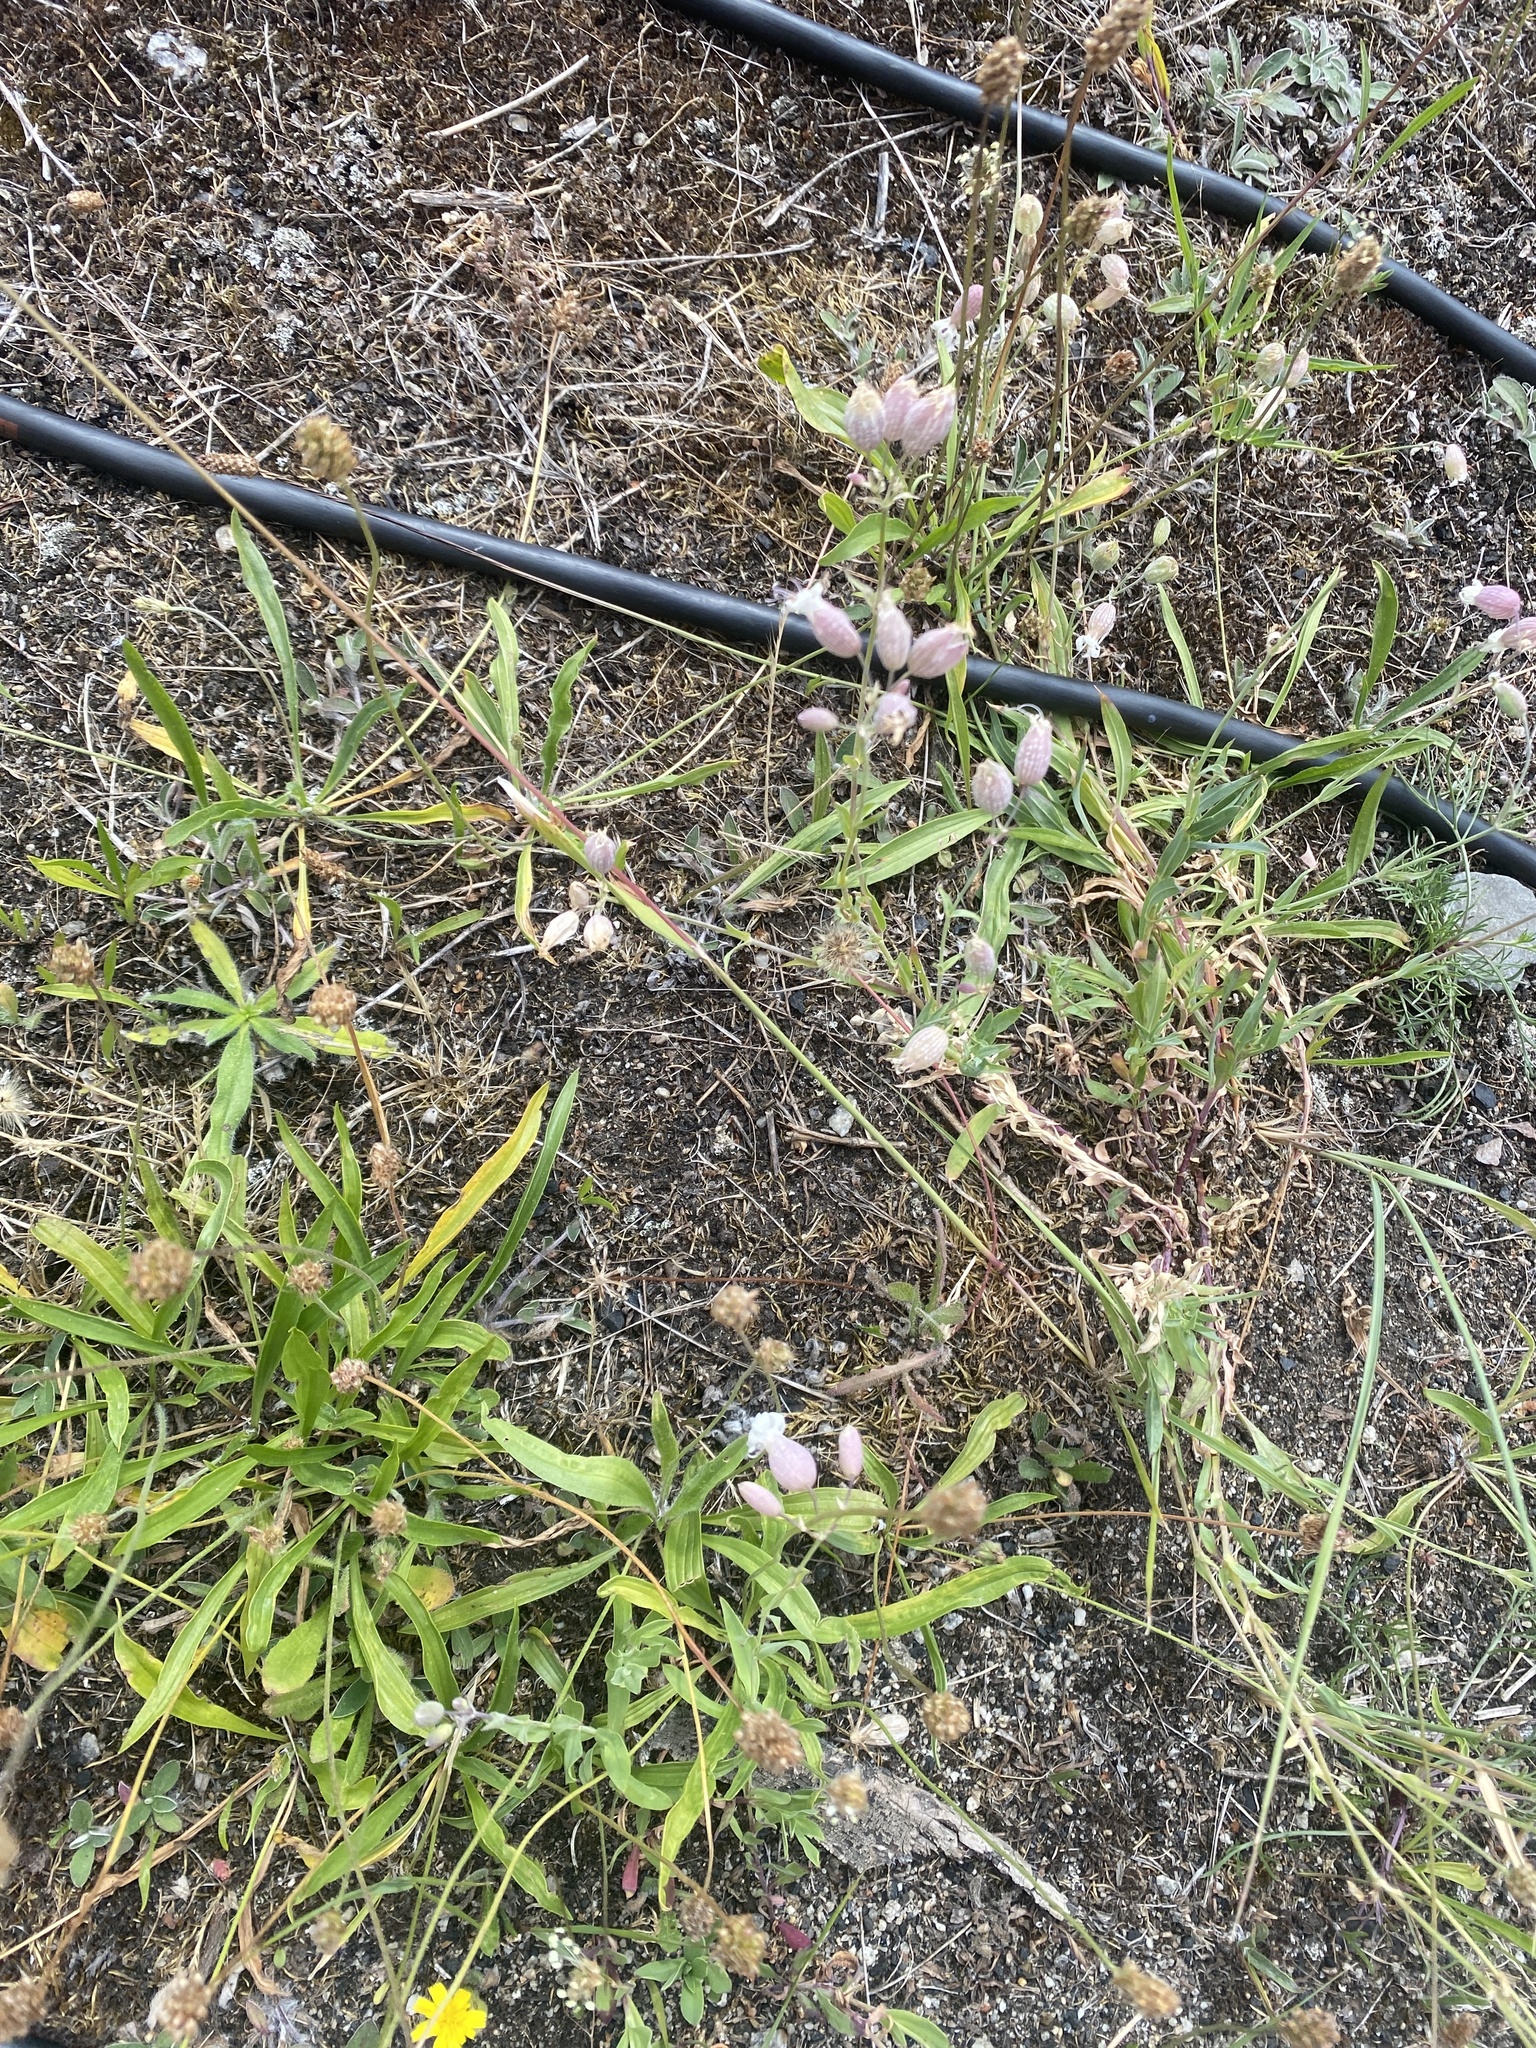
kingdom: Plantae
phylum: Tracheophyta
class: Magnoliopsida
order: Caryophyllales
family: Caryophyllaceae
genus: Silene
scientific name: Silene vulgaris
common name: Bladder campion
